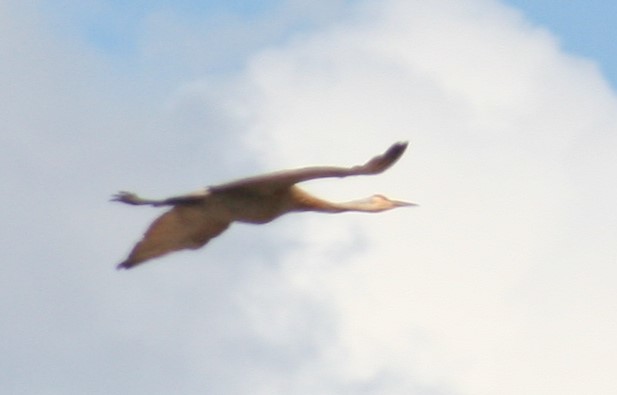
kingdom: Animalia
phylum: Chordata
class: Aves
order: Gruiformes
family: Gruidae
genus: Grus
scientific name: Grus canadensis
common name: Sandhill crane
